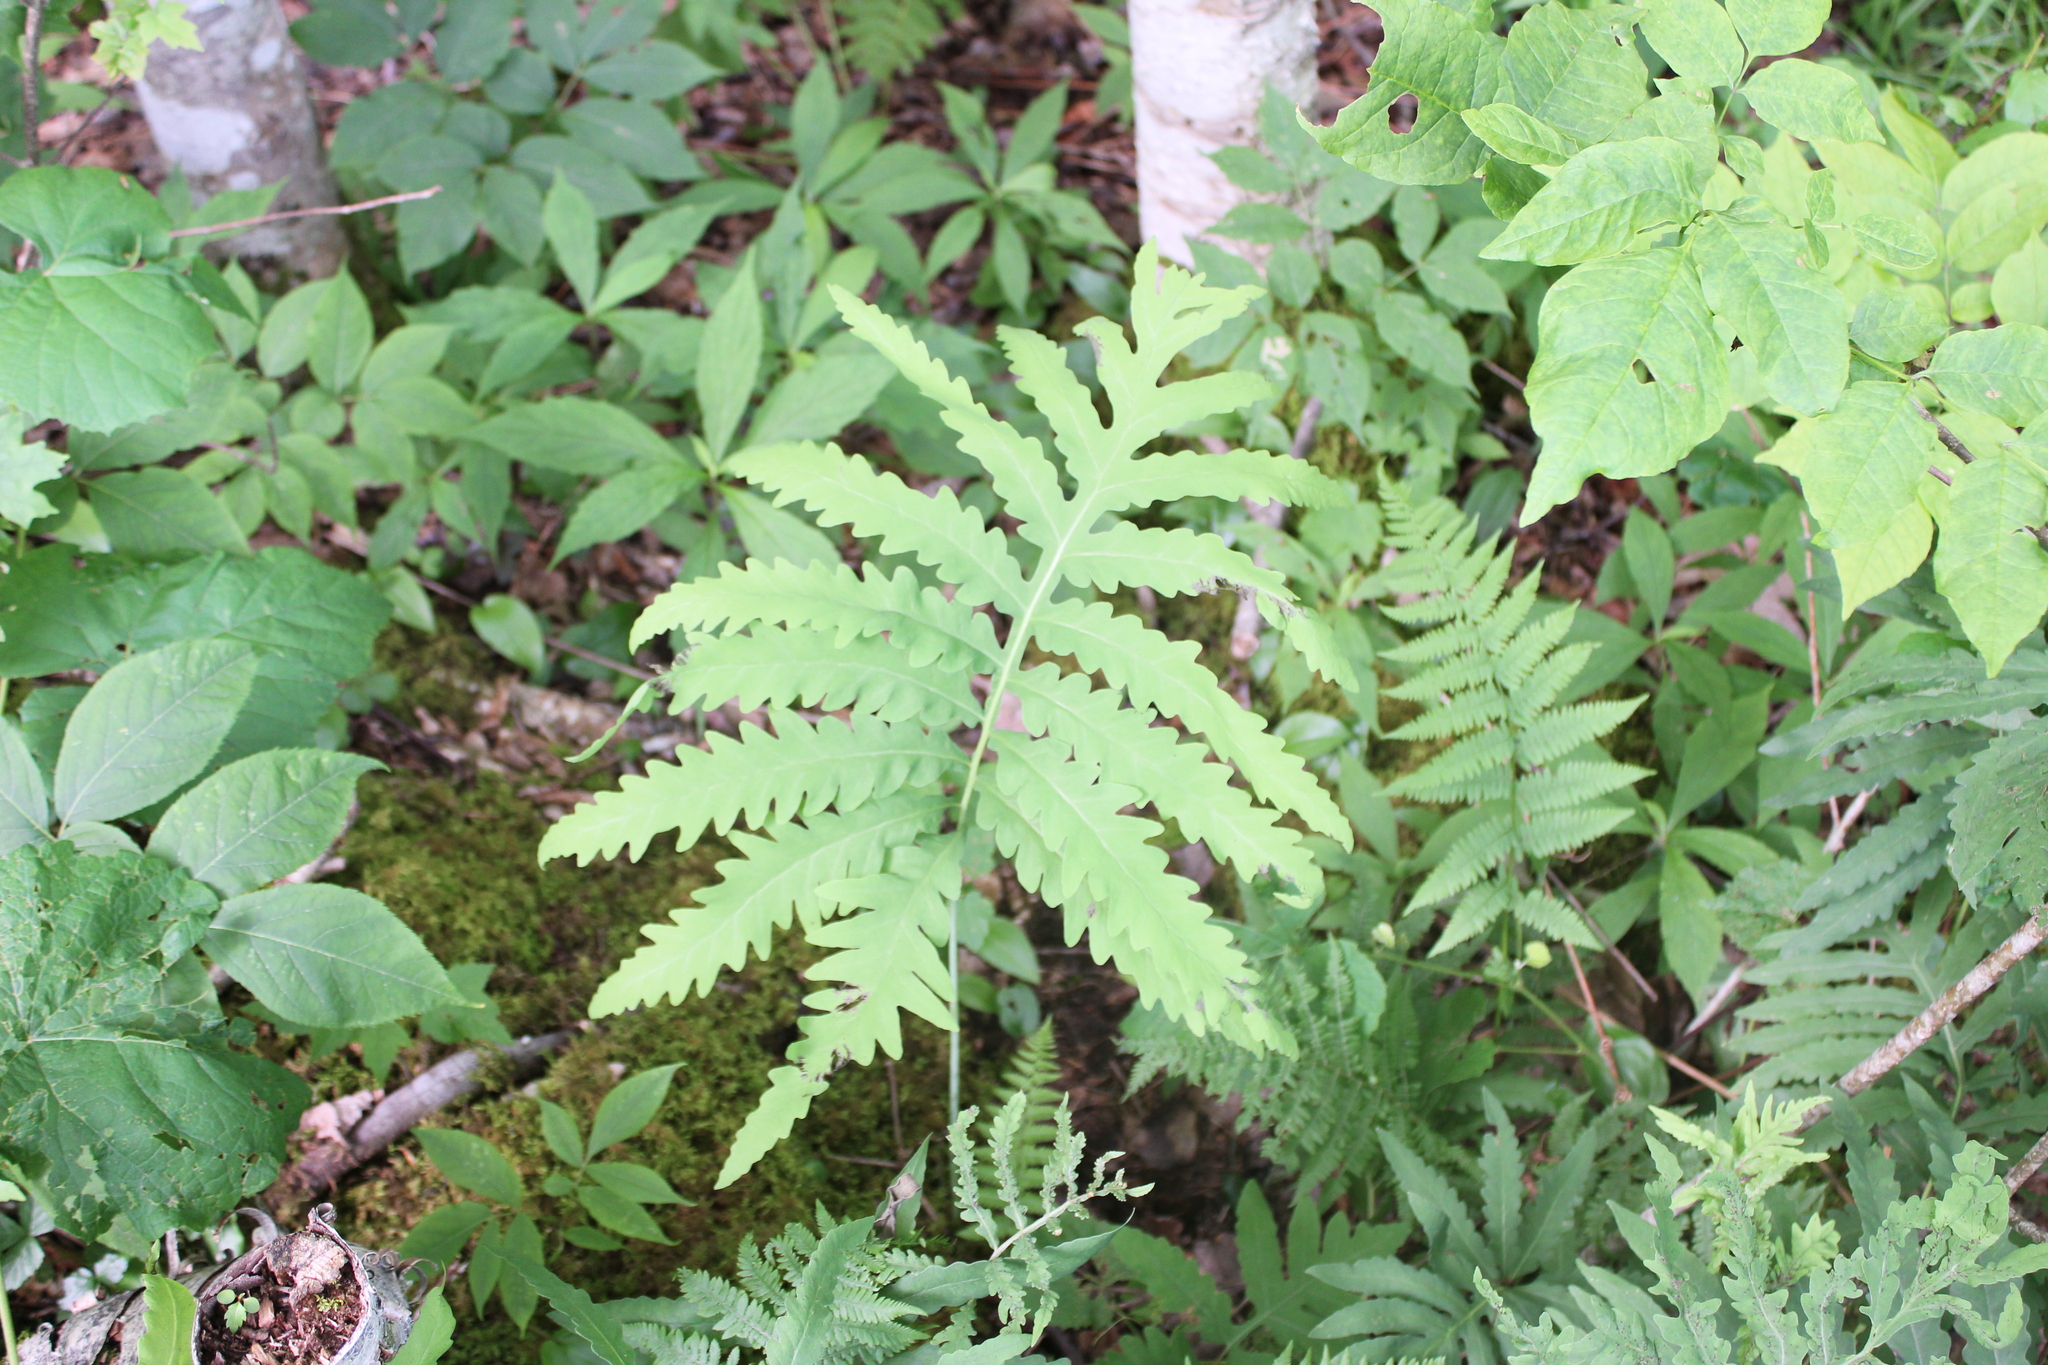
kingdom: Plantae
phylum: Tracheophyta
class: Polypodiopsida
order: Polypodiales
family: Onocleaceae
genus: Onoclea
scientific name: Onoclea sensibilis
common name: Sensitive fern
